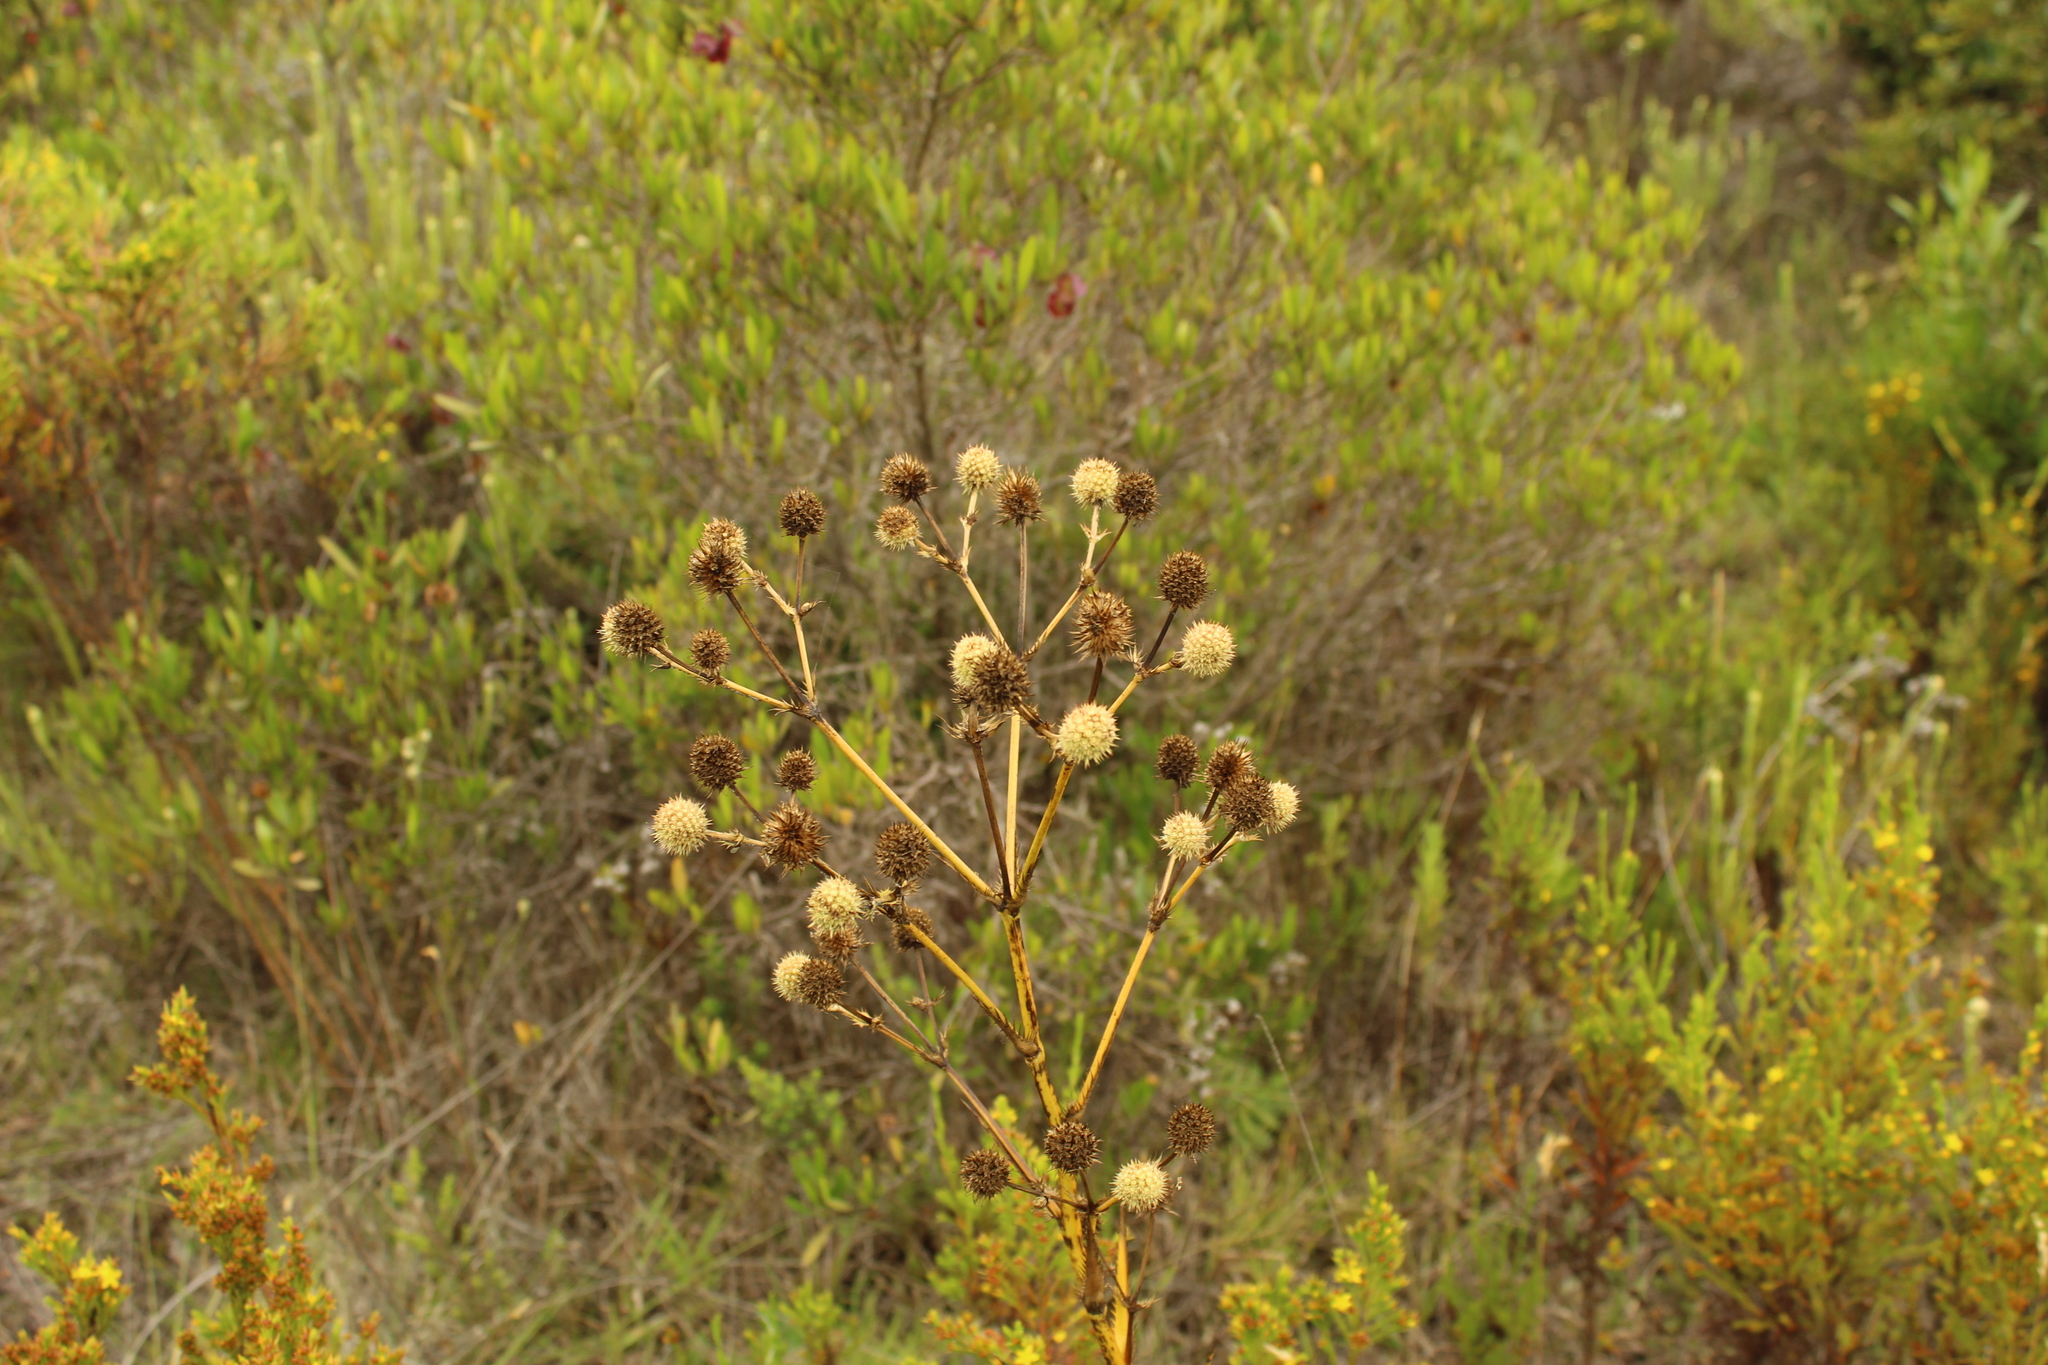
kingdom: Plantae
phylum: Tracheophyta
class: Magnoliopsida
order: Apiales
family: Apiaceae
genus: Eryngium
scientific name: Eryngium humboldtii
